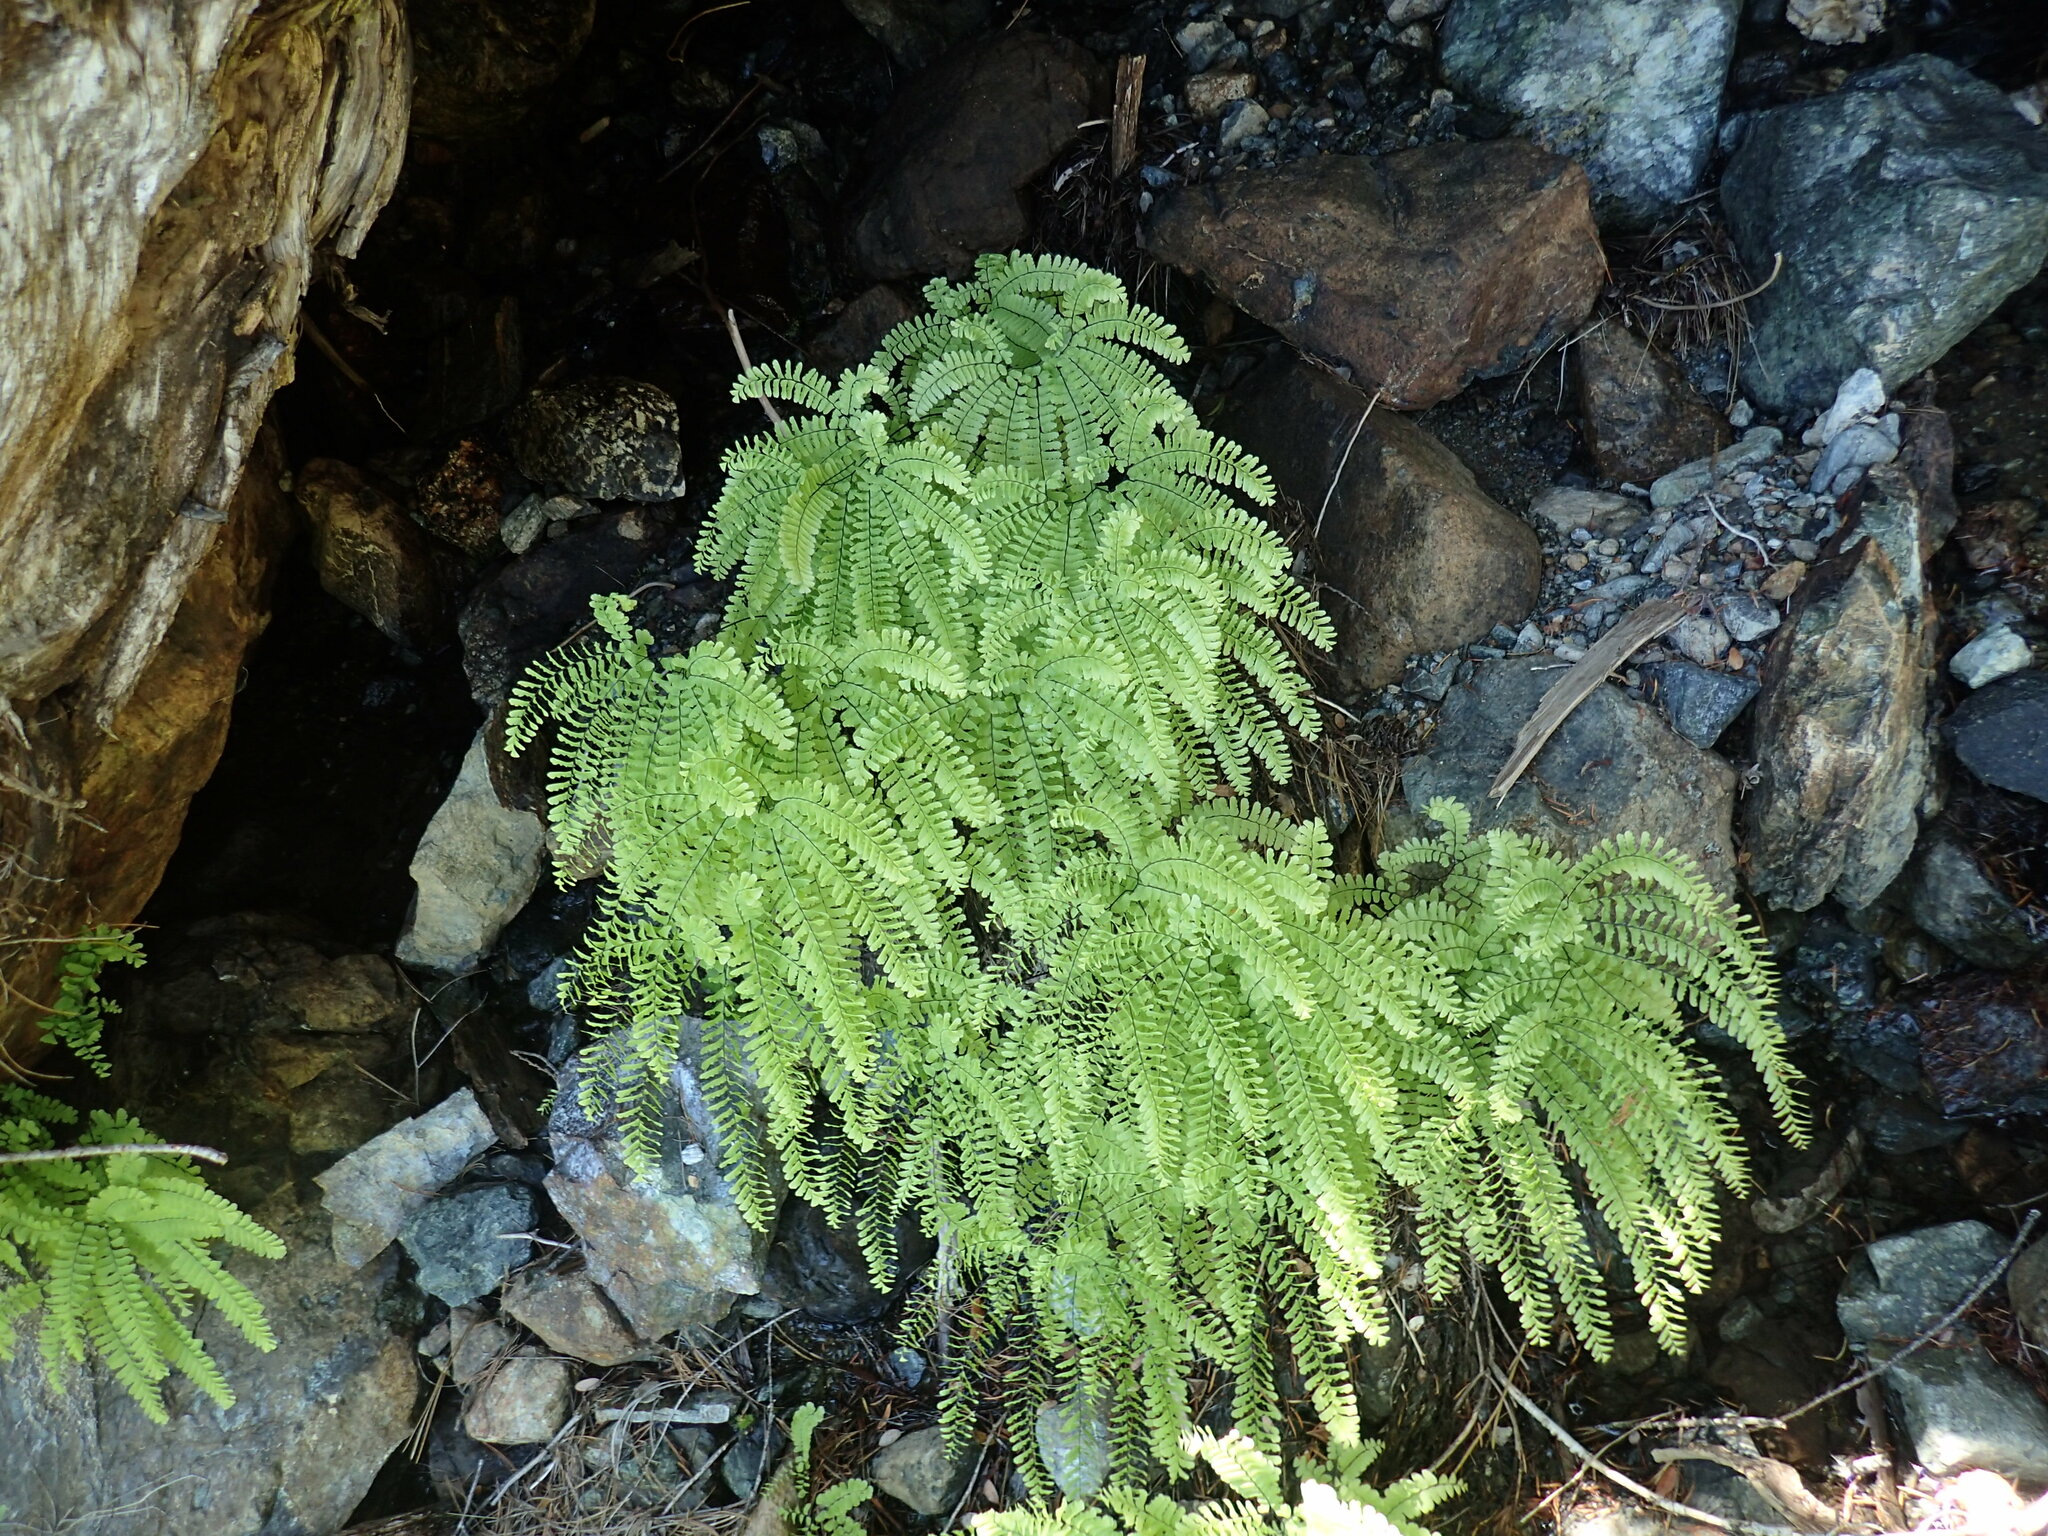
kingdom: Plantae
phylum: Tracheophyta
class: Polypodiopsida
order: Polypodiales
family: Pteridaceae
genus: Adiantum
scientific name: Adiantum aleuticum
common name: Aleutian maidenhair fern
